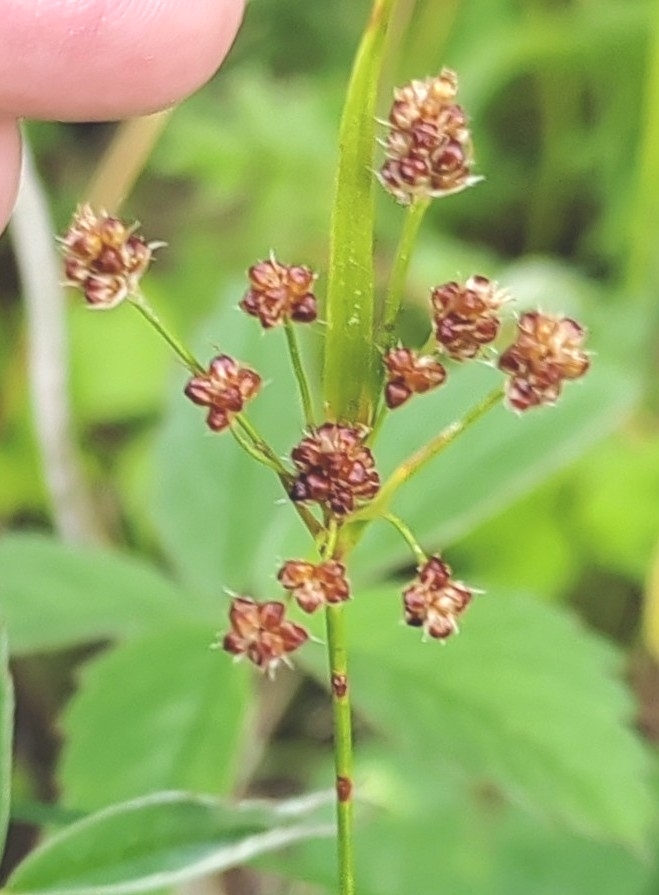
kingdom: Plantae
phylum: Tracheophyta
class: Liliopsida
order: Poales
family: Juncaceae
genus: Luzula
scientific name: Luzula pallescens
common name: Fen wood-rush
